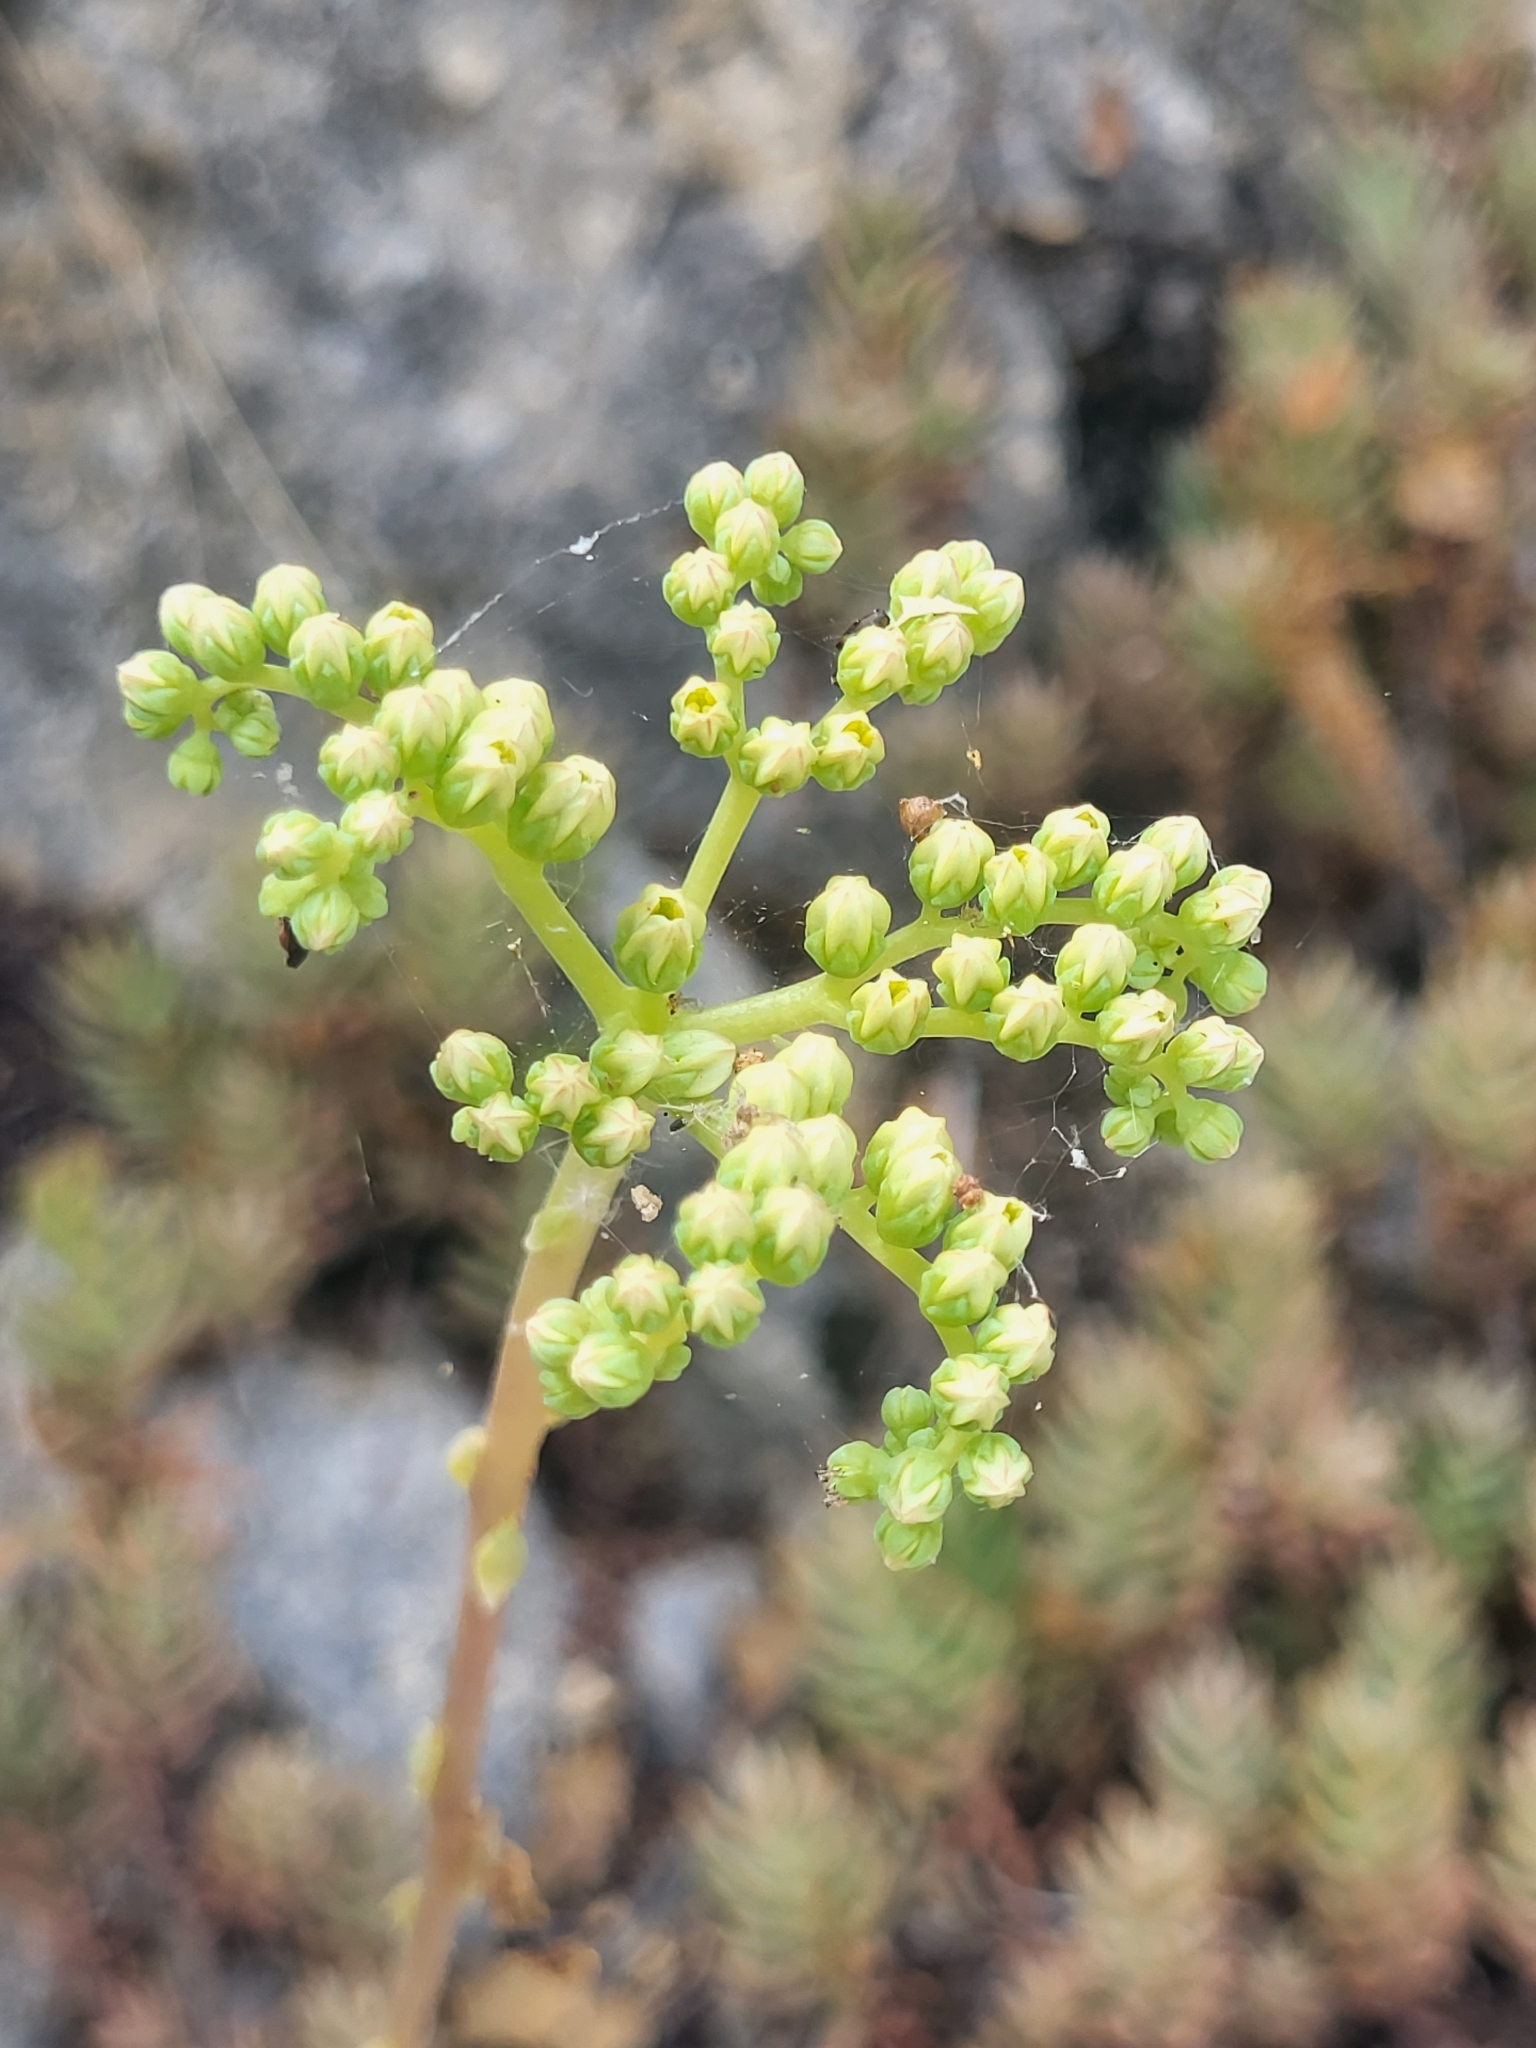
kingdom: Plantae
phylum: Tracheophyta
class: Magnoliopsida
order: Saxifragales
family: Crassulaceae
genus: Petrosedum
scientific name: Petrosedum sediforme
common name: Pale stonecrop
